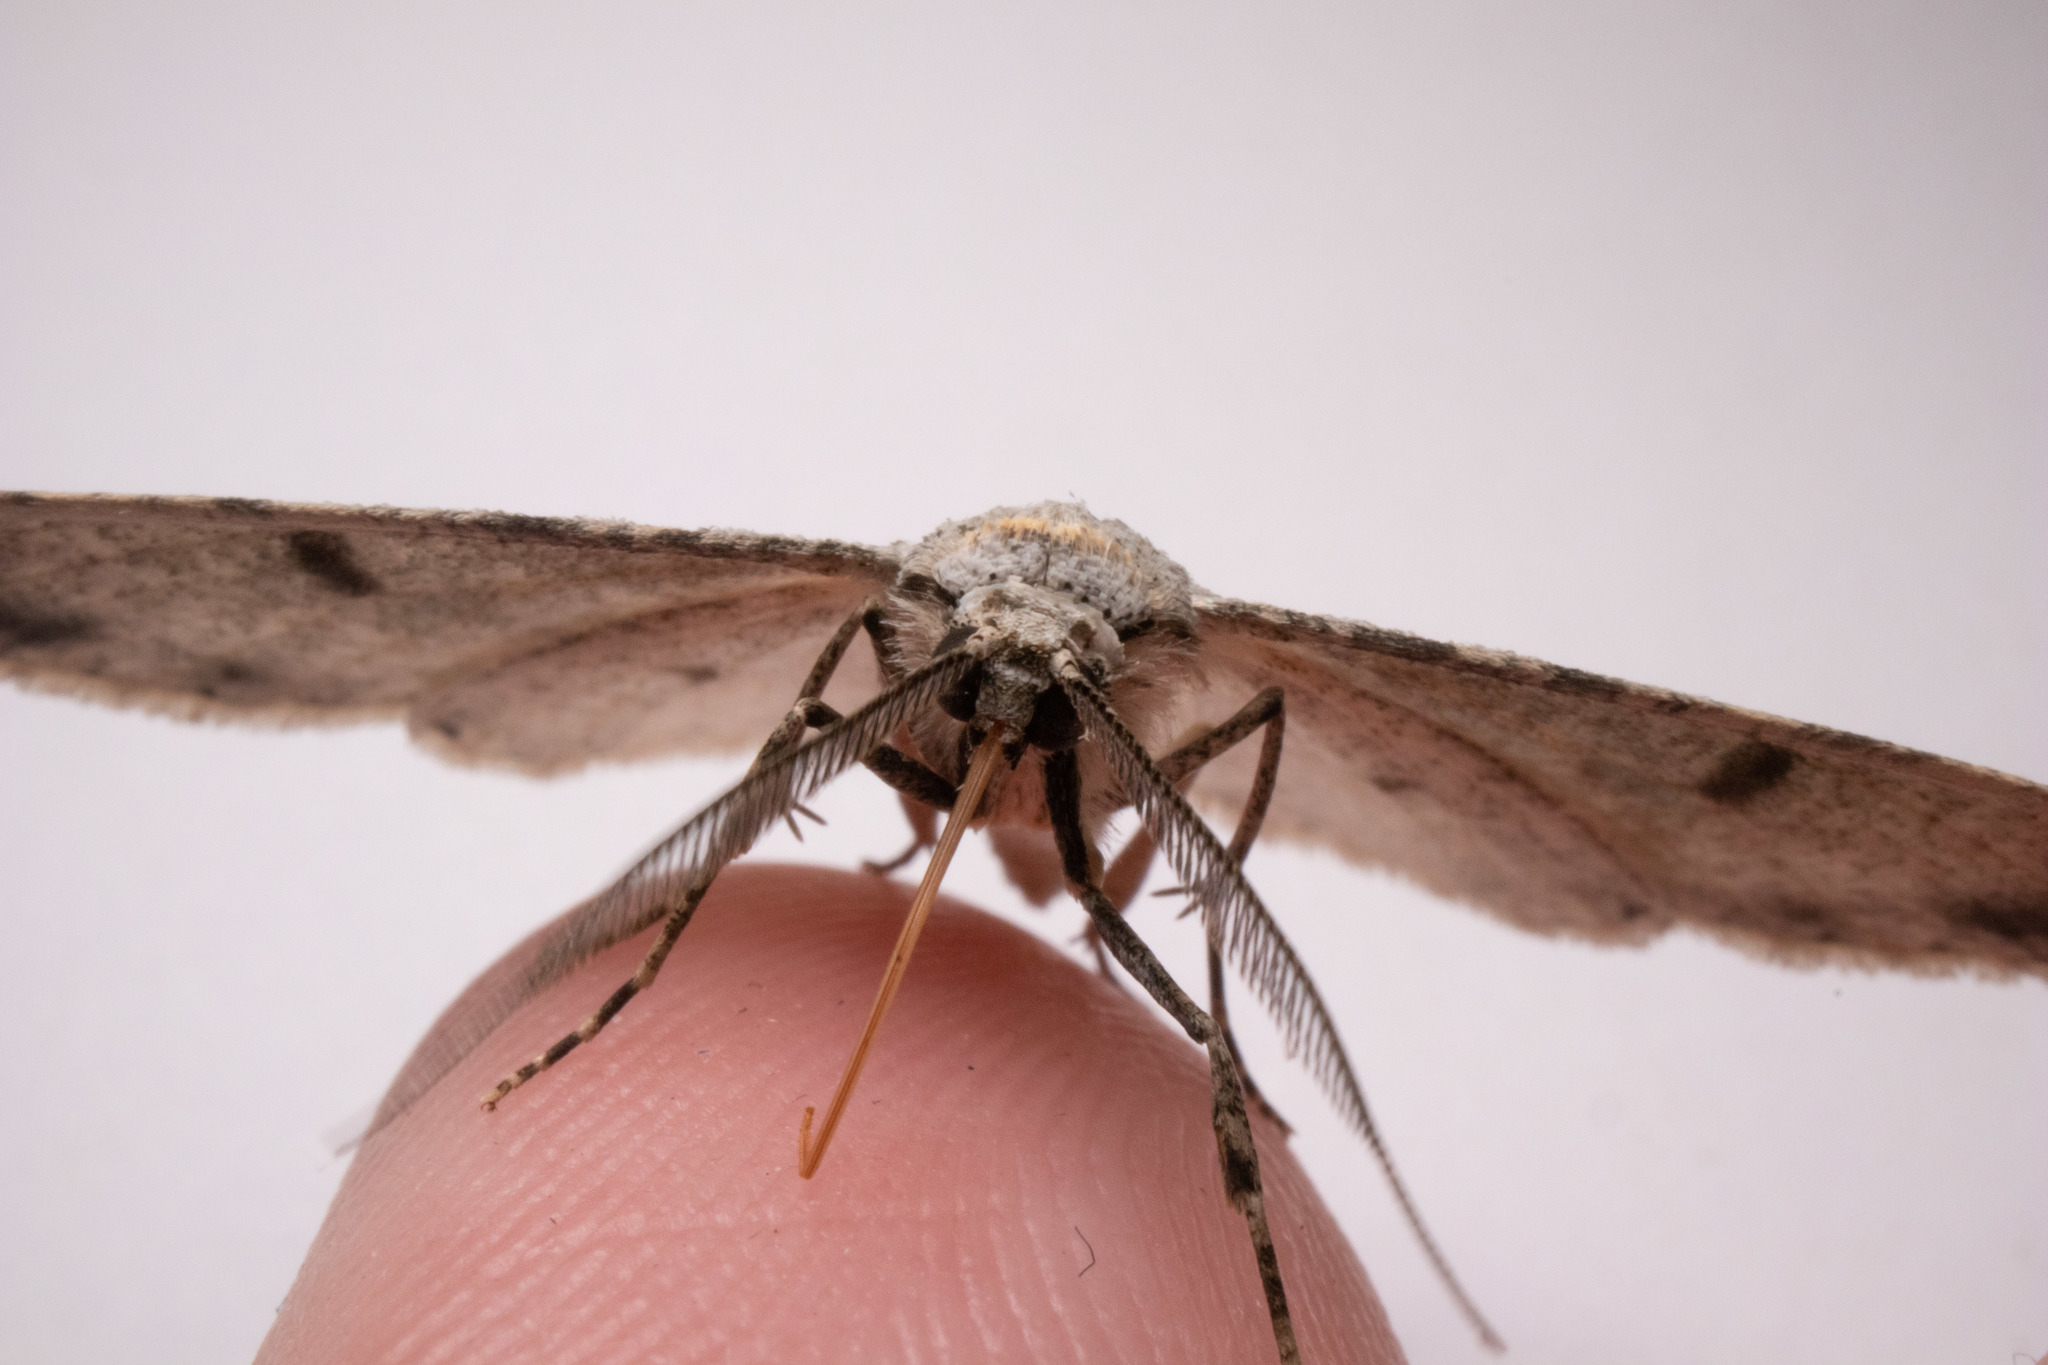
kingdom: Animalia
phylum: Arthropoda
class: Insecta
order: Lepidoptera
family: Geometridae
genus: Iridopsis
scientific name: Iridopsis defectaria
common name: Brown-shaded gray
